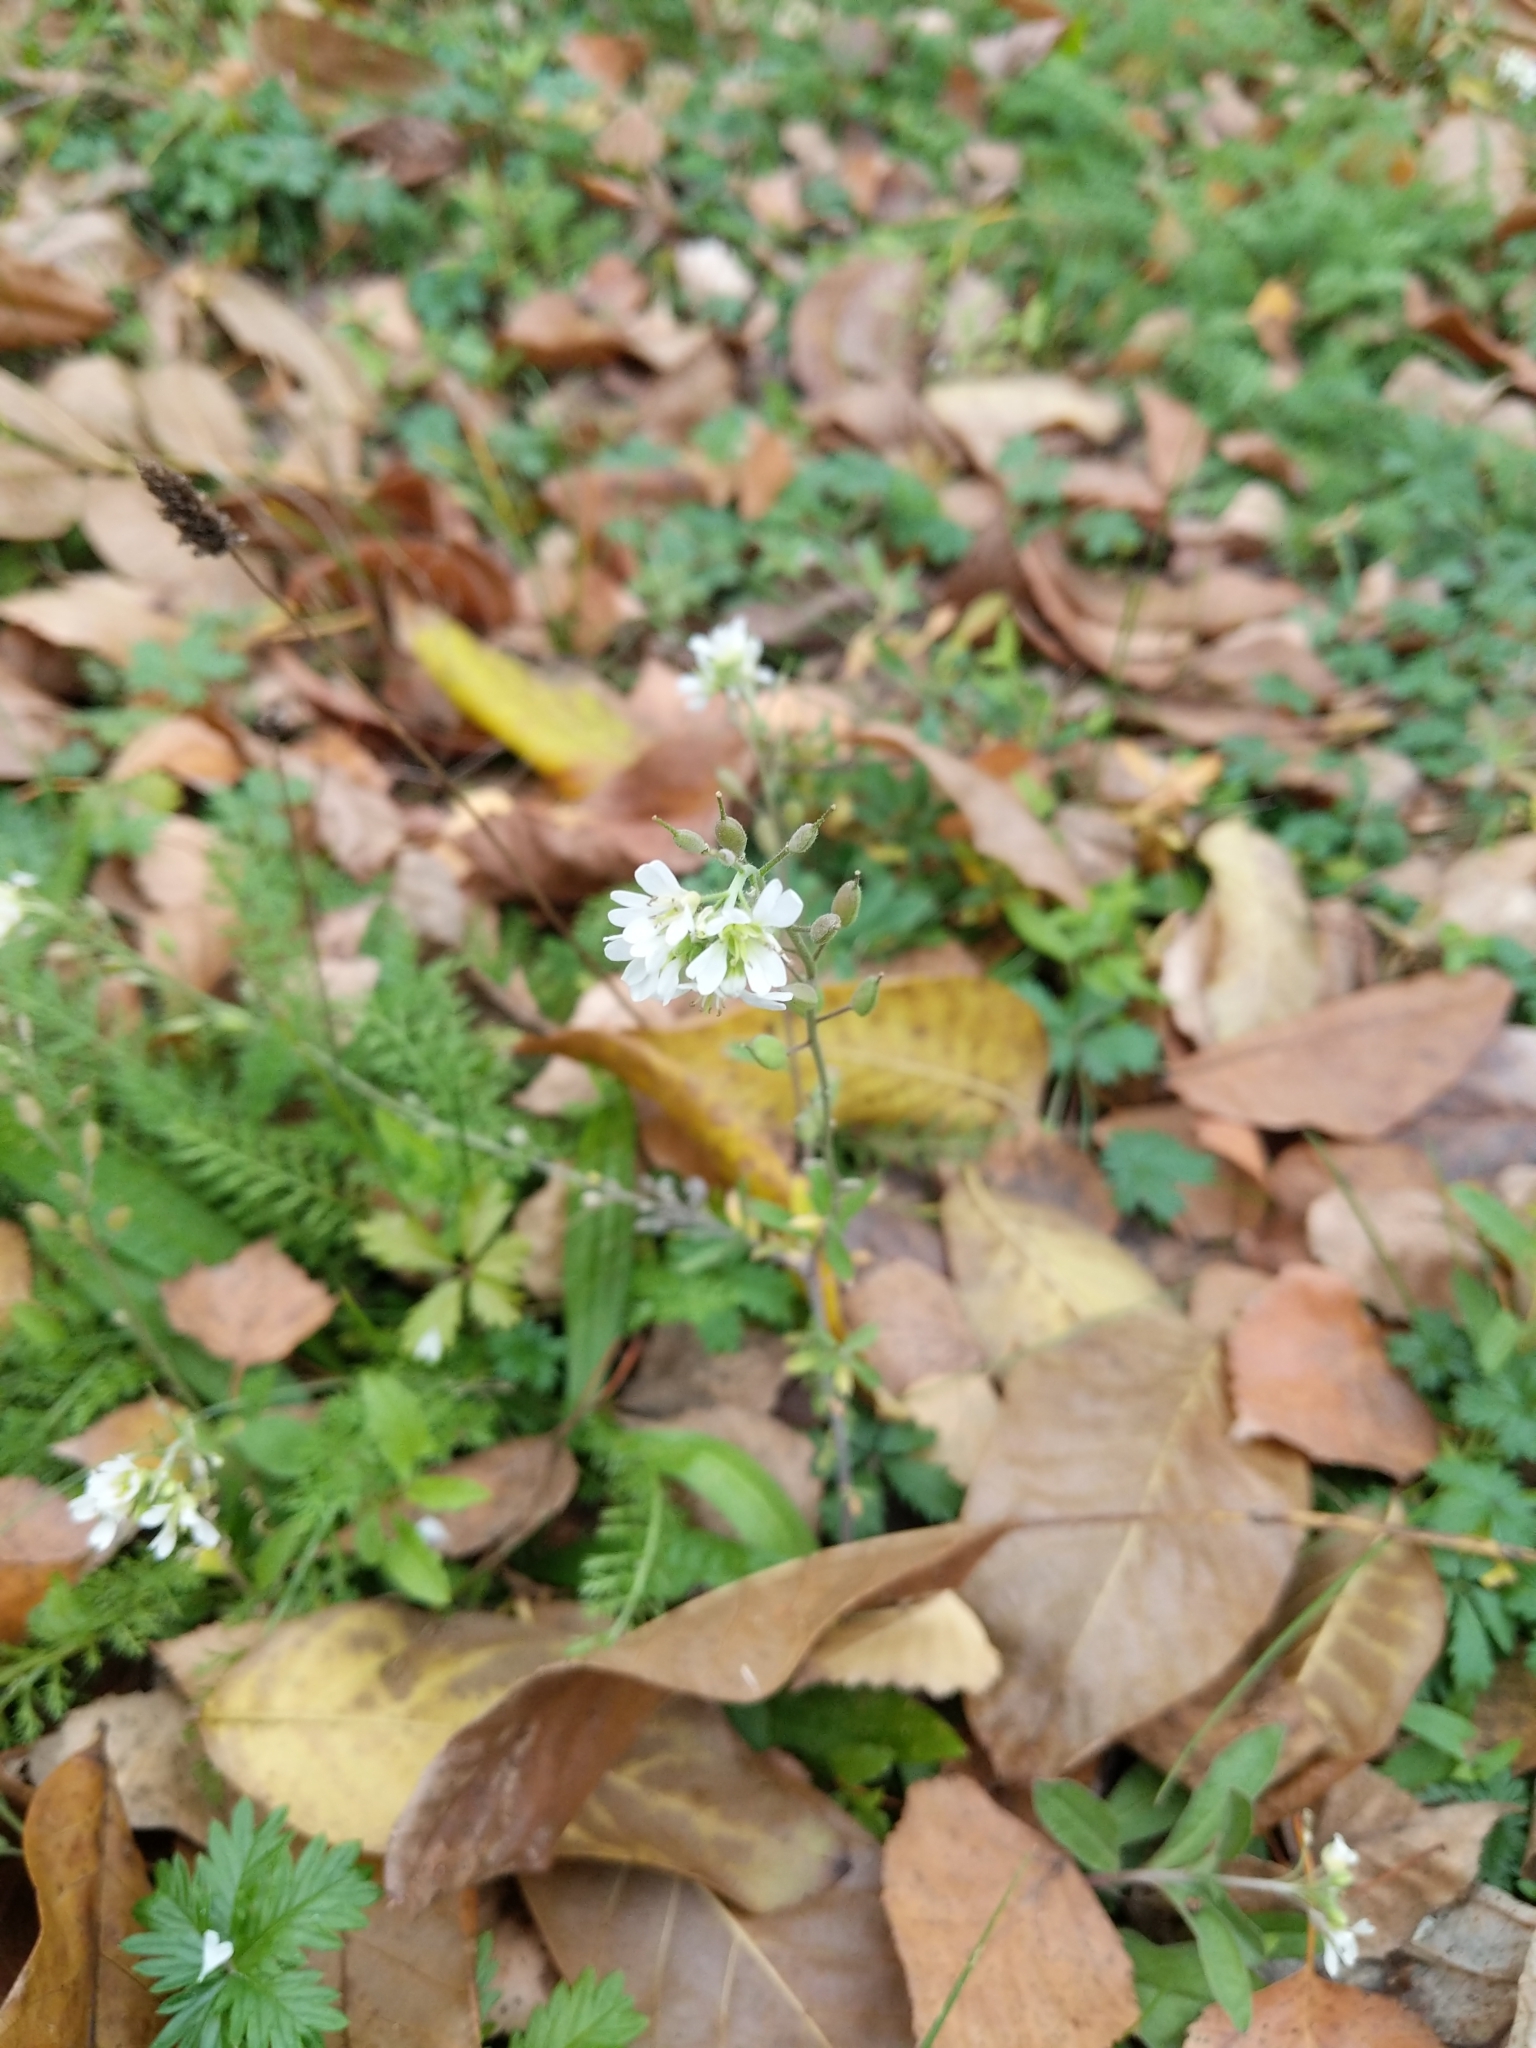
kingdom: Plantae
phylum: Tracheophyta
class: Magnoliopsida
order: Brassicales
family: Brassicaceae
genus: Berteroa
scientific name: Berteroa incana
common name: Hoary alison
